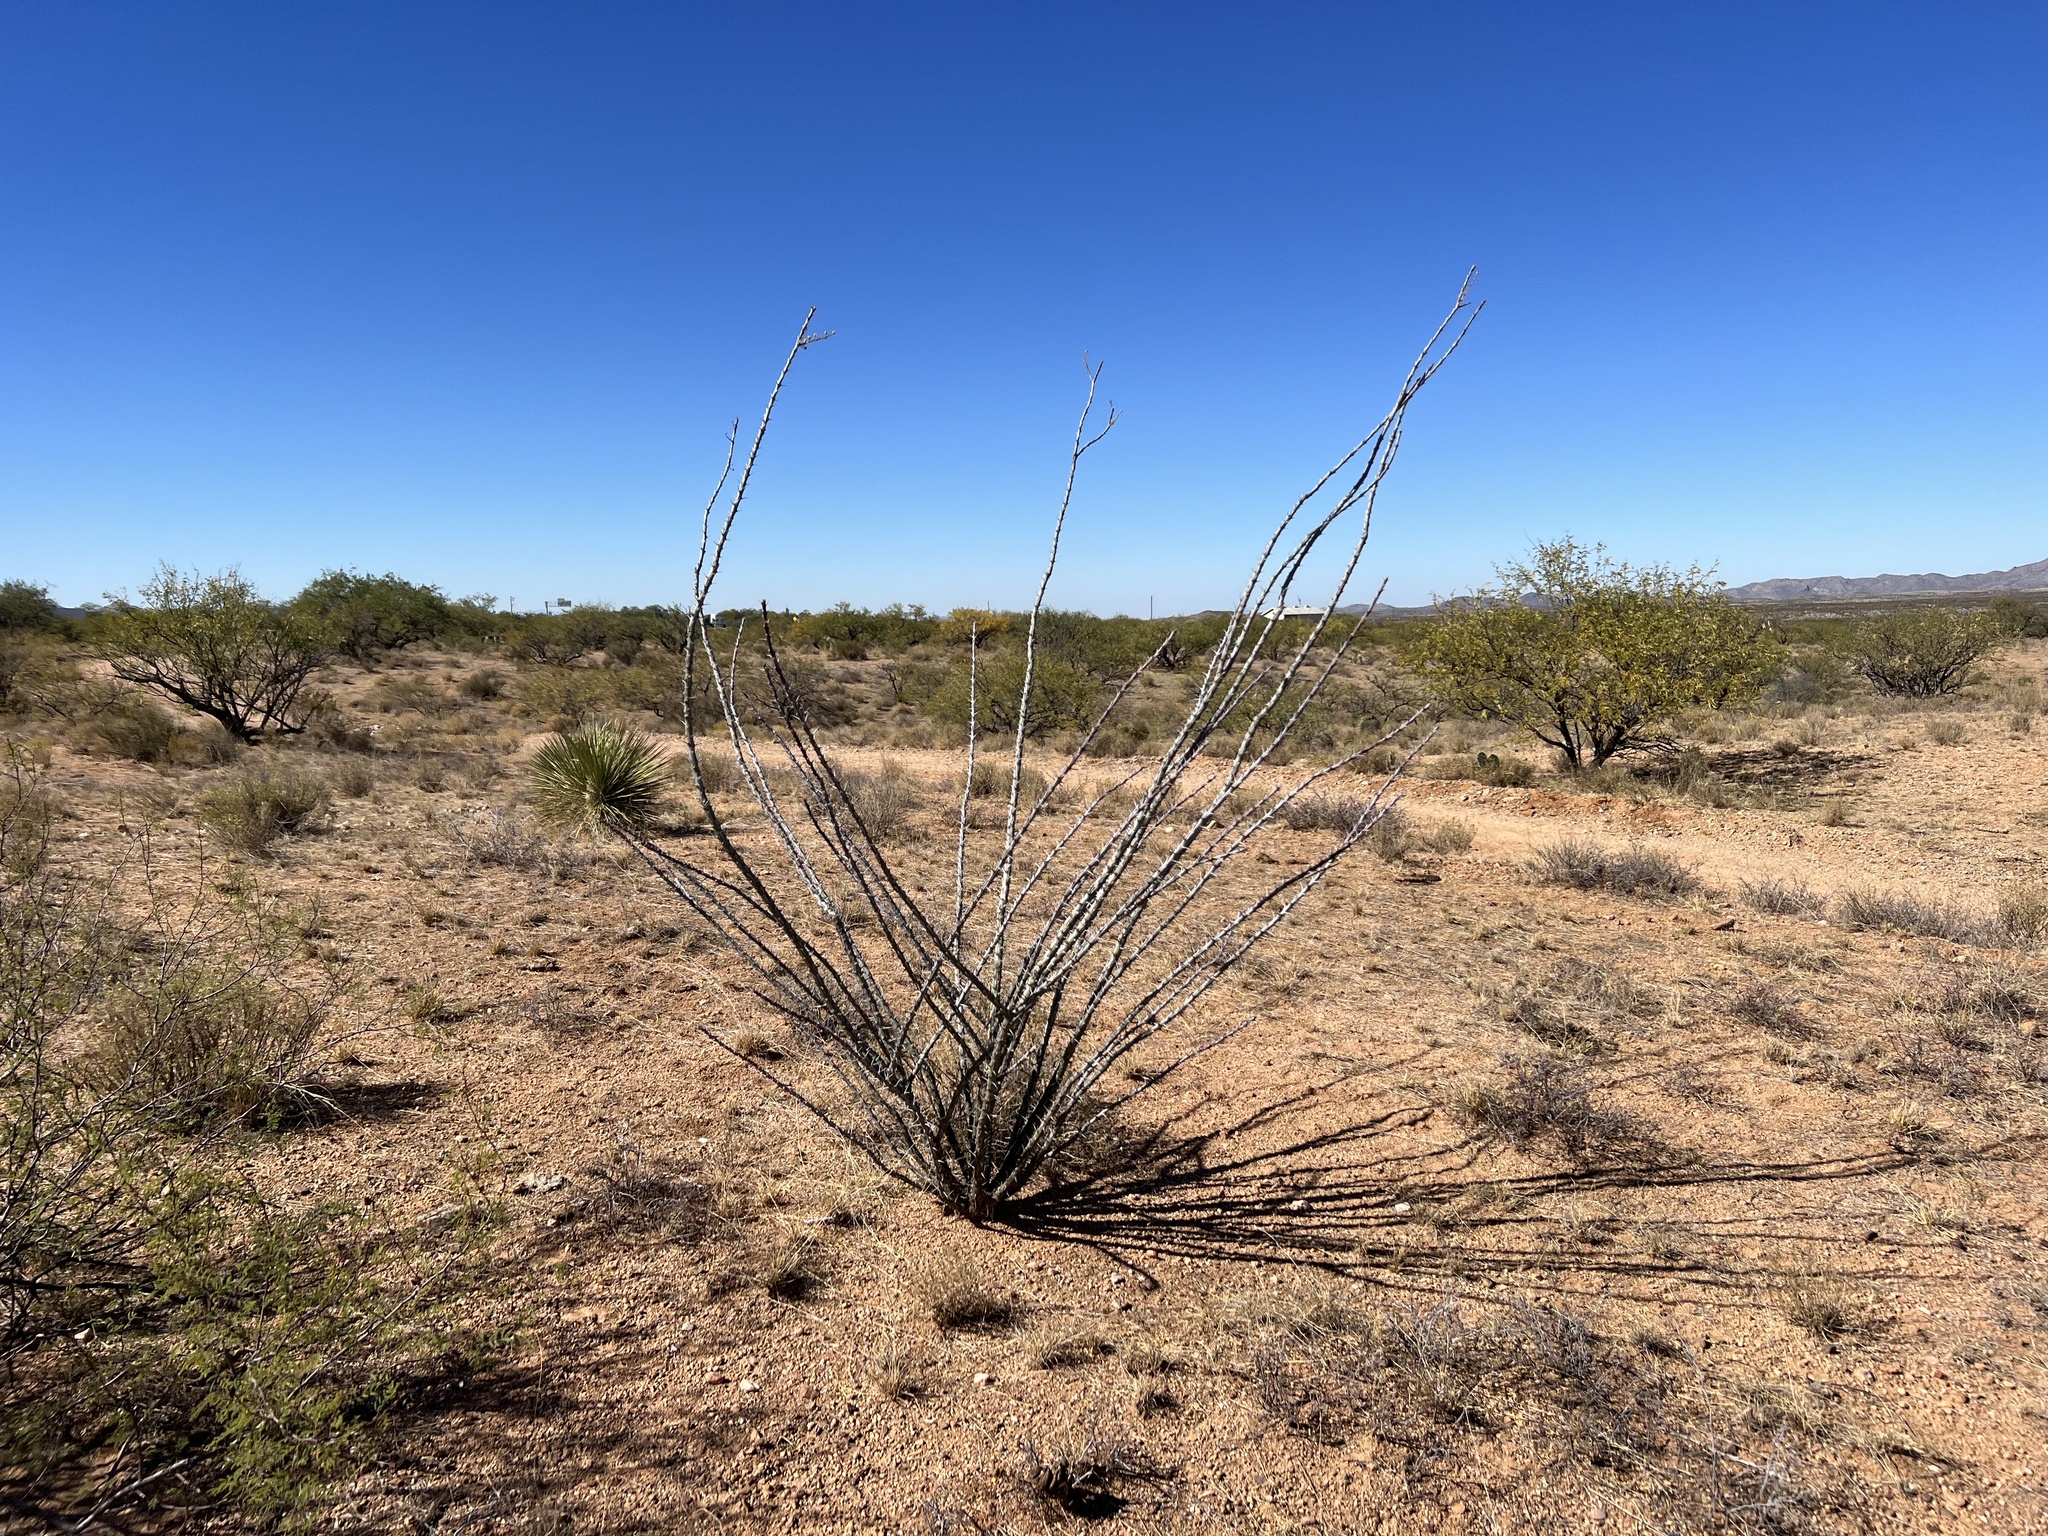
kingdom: Plantae
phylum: Tracheophyta
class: Magnoliopsida
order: Ericales
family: Fouquieriaceae
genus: Fouquieria
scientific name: Fouquieria splendens
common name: Vine-cactus
